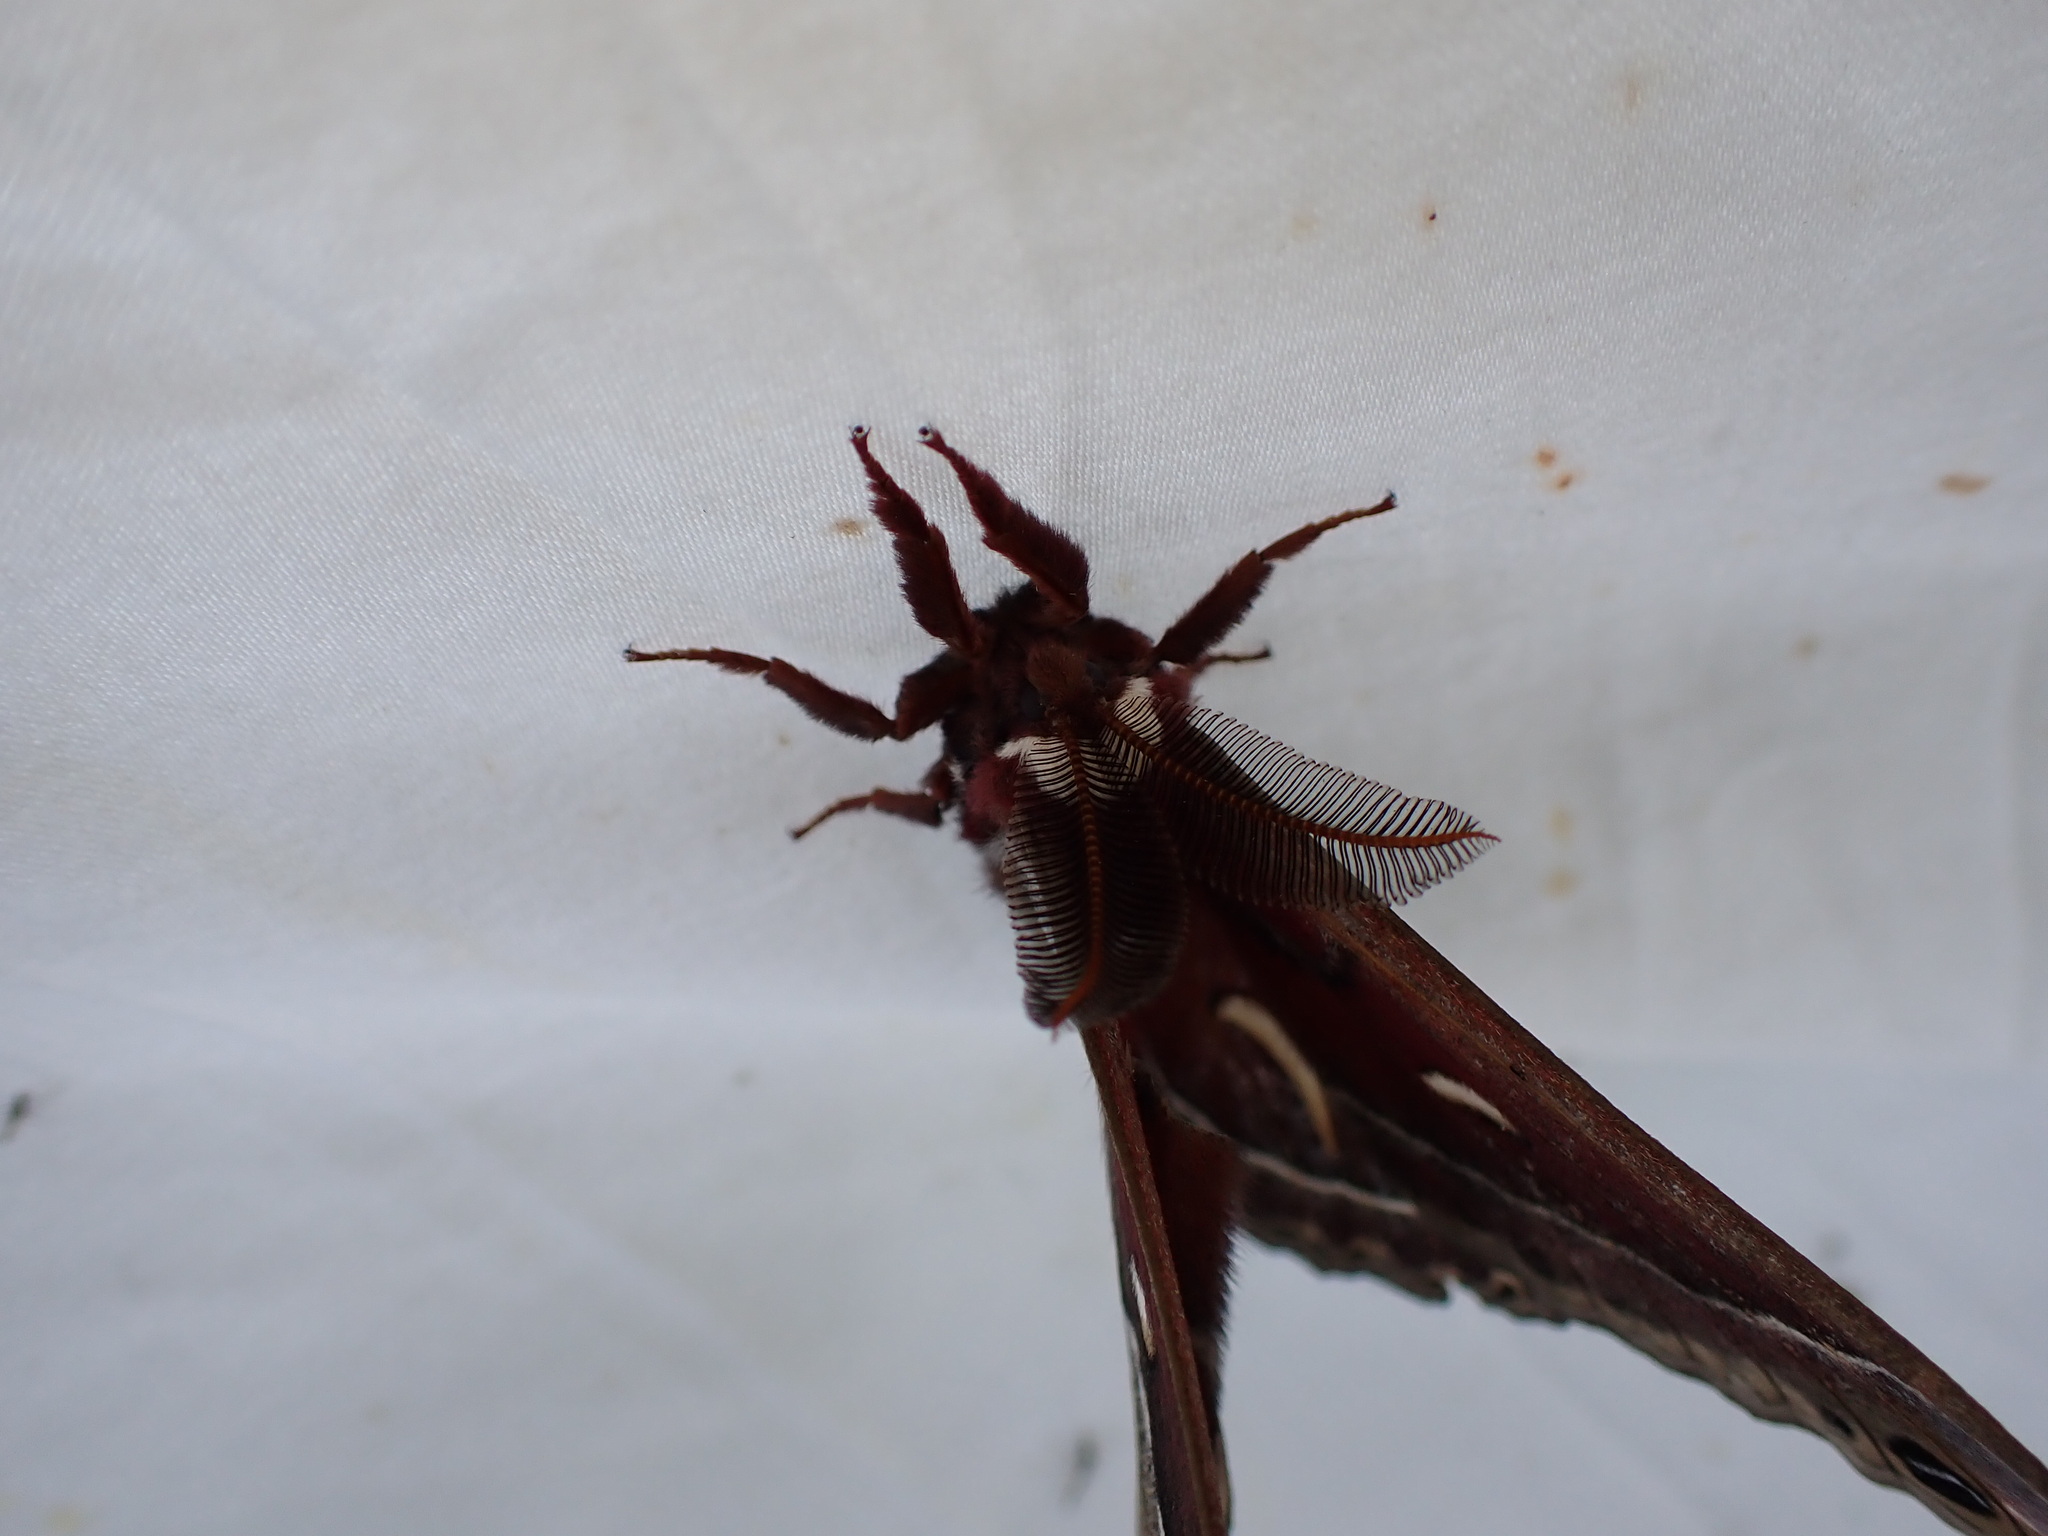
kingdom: Animalia
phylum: Arthropoda
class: Insecta
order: Lepidoptera
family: Saturniidae
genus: Hyalophora
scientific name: Hyalophora euryalus
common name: Ceanothus silkmoth
